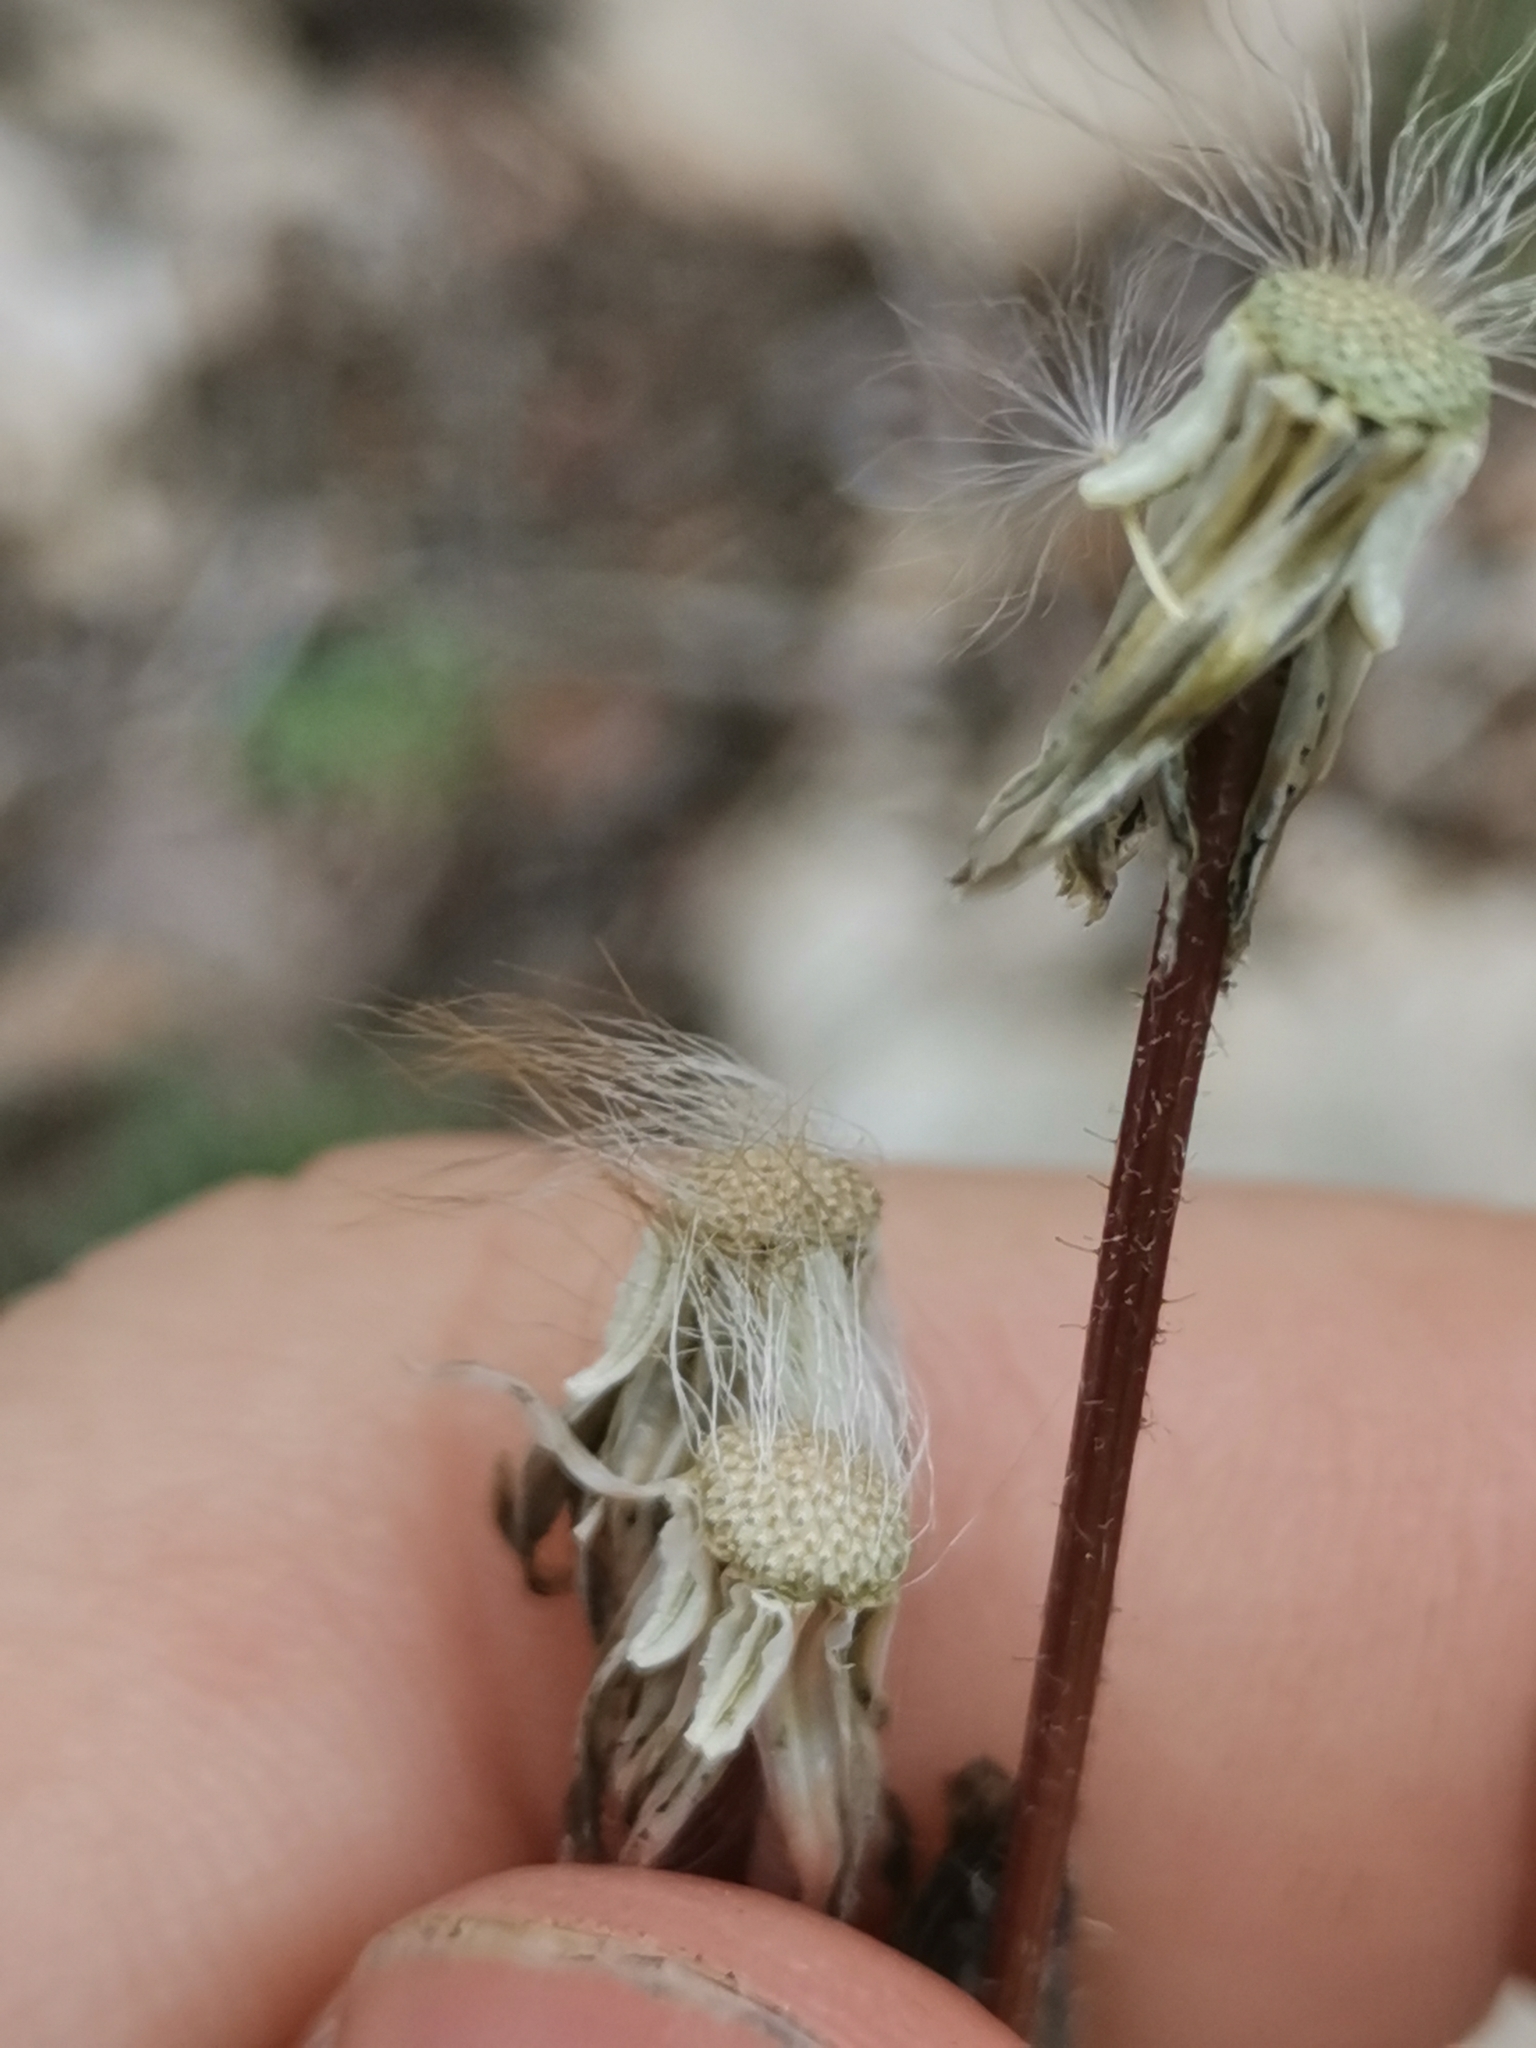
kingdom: Plantae
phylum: Tracheophyta
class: Magnoliopsida
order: Asterales
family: Asteraceae
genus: Crepis
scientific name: Crepis sancta
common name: Hawk's-beard
